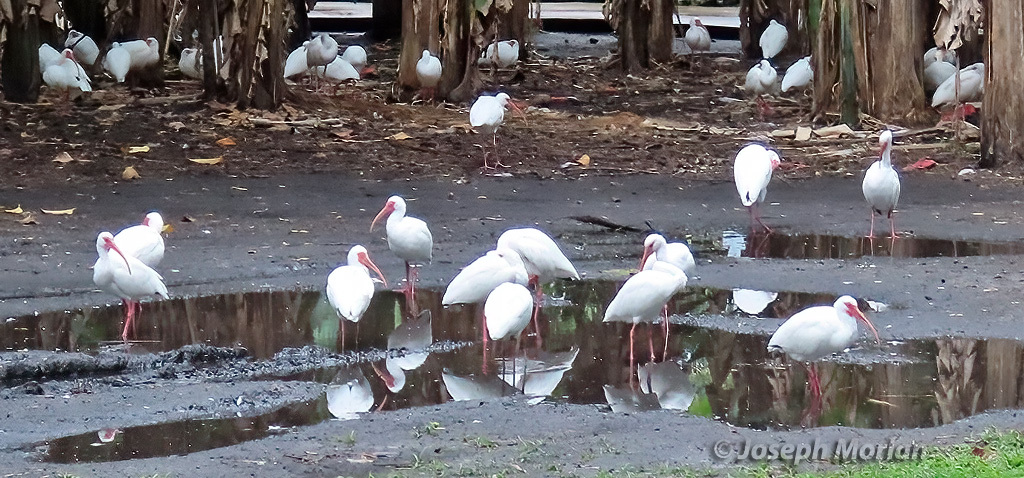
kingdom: Animalia
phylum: Chordata
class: Aves
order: Pelecaniformes
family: Threskiornithidae
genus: Eudocimus
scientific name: Eudocimus albus
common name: White ibis
